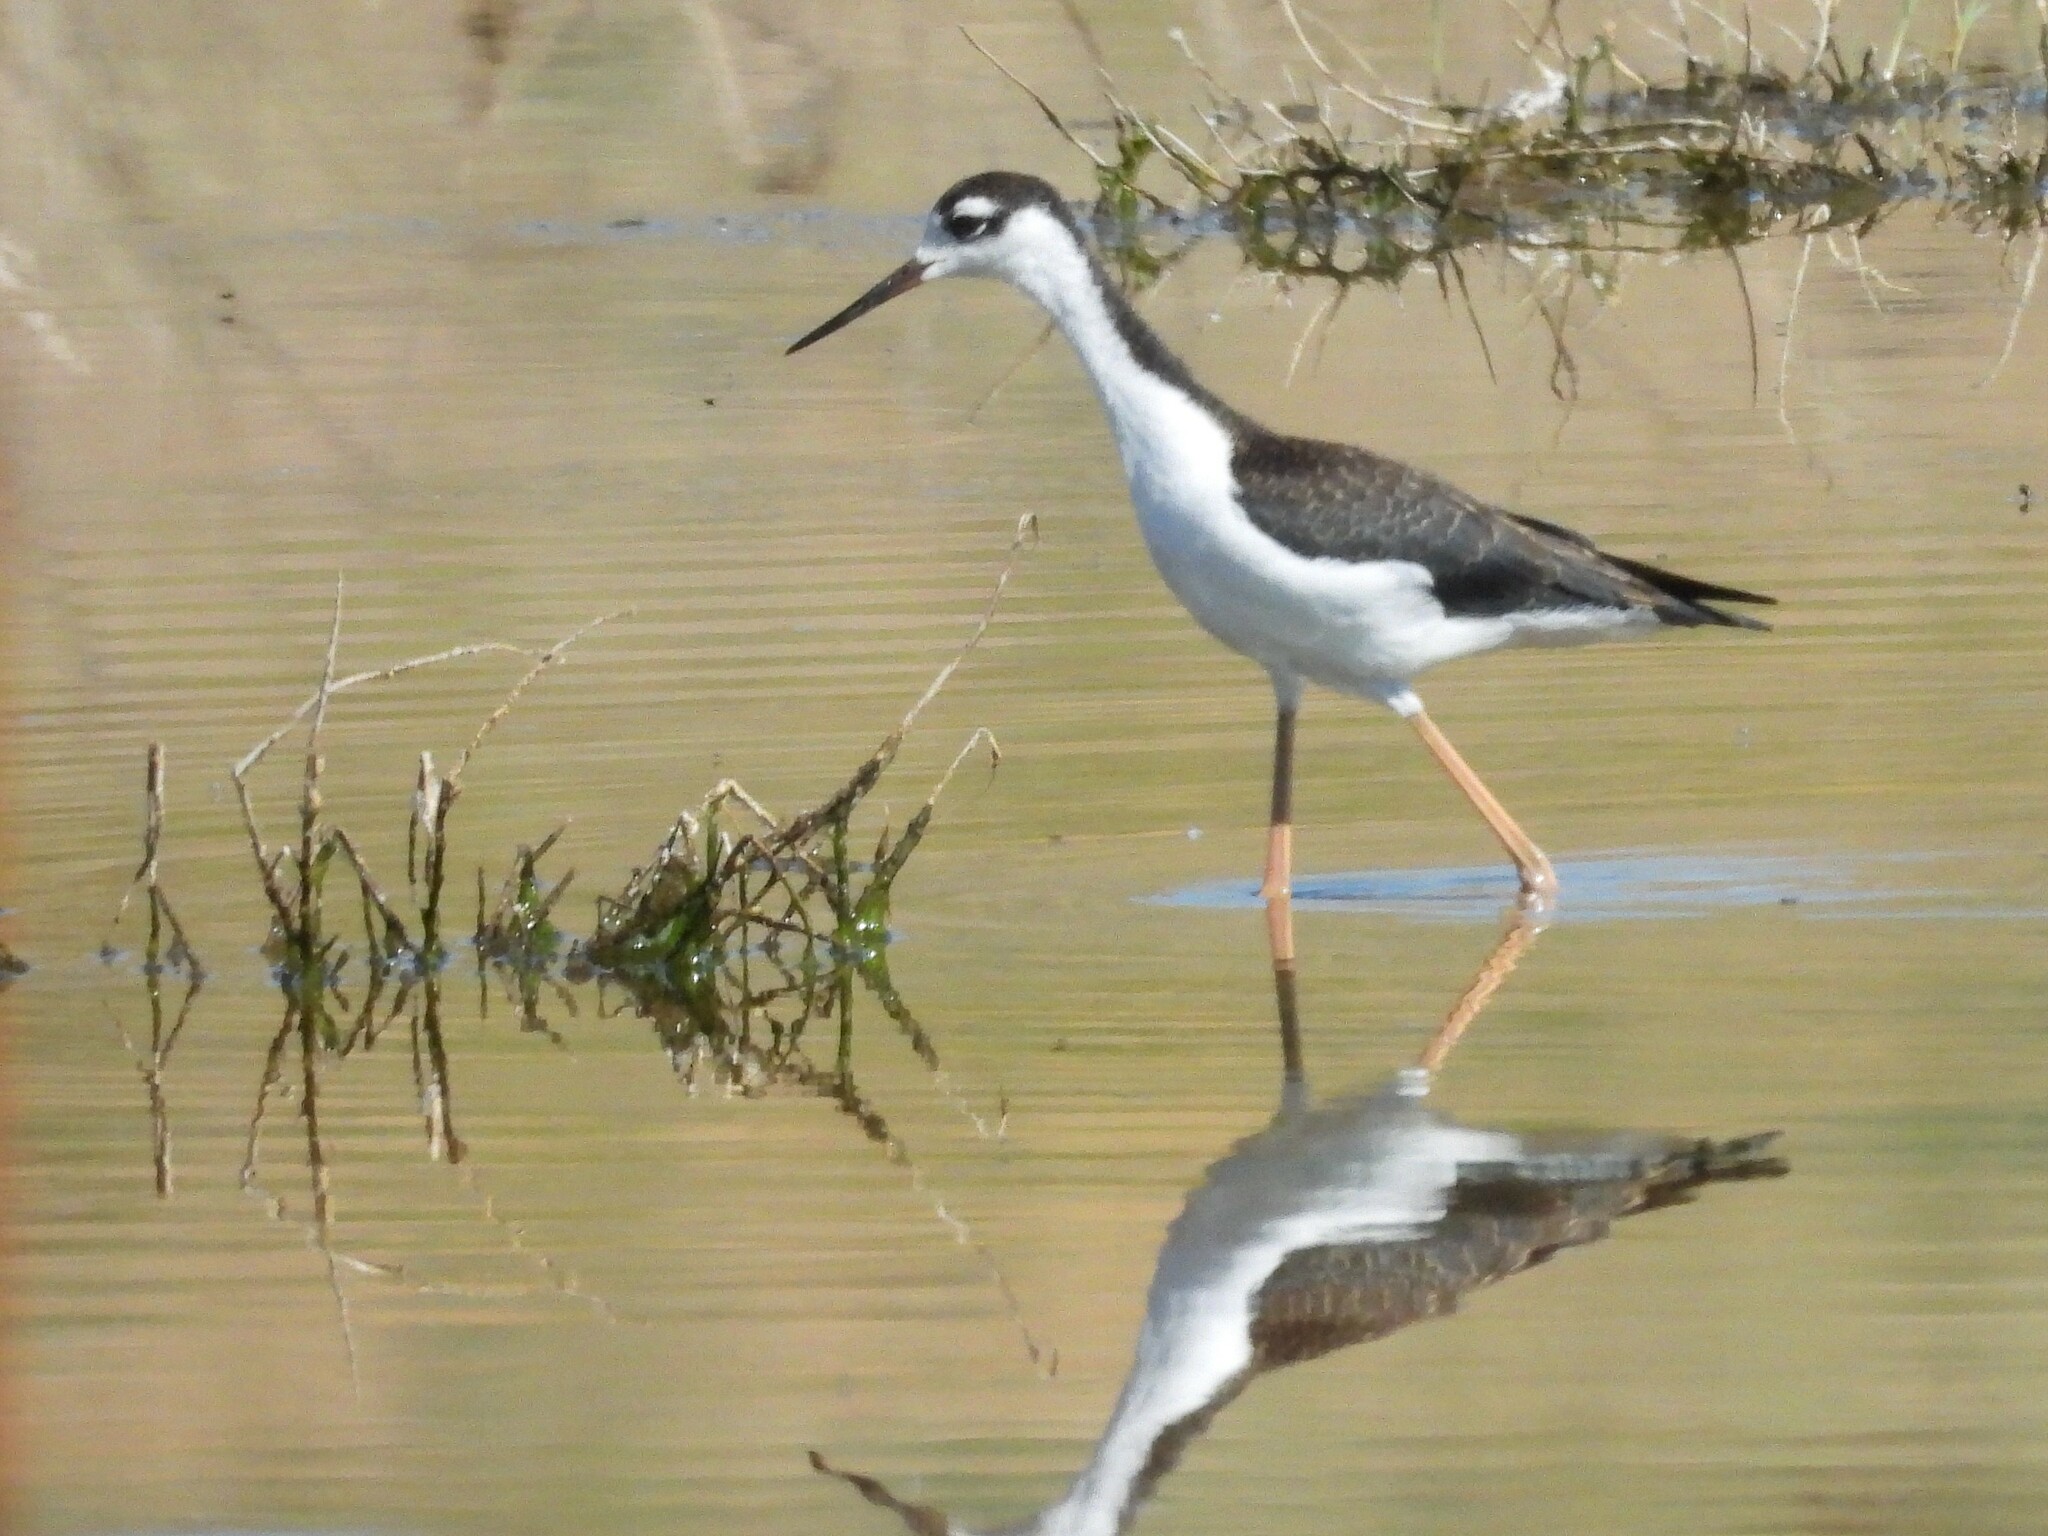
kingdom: Animalia
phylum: Chordata
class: Aves
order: Charadriiformes
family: Recurvirostridae
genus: Himantopus
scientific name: Himantopus mexicanus
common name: Black-necked stilt
